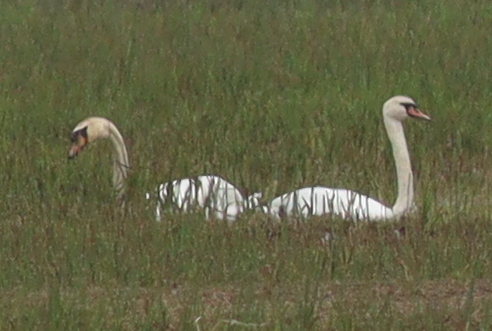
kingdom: Animalia
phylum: Chordata
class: Aves
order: Anseriformes
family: Anatidae
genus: Cygnus
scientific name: Cygnus olor
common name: Mute swan
